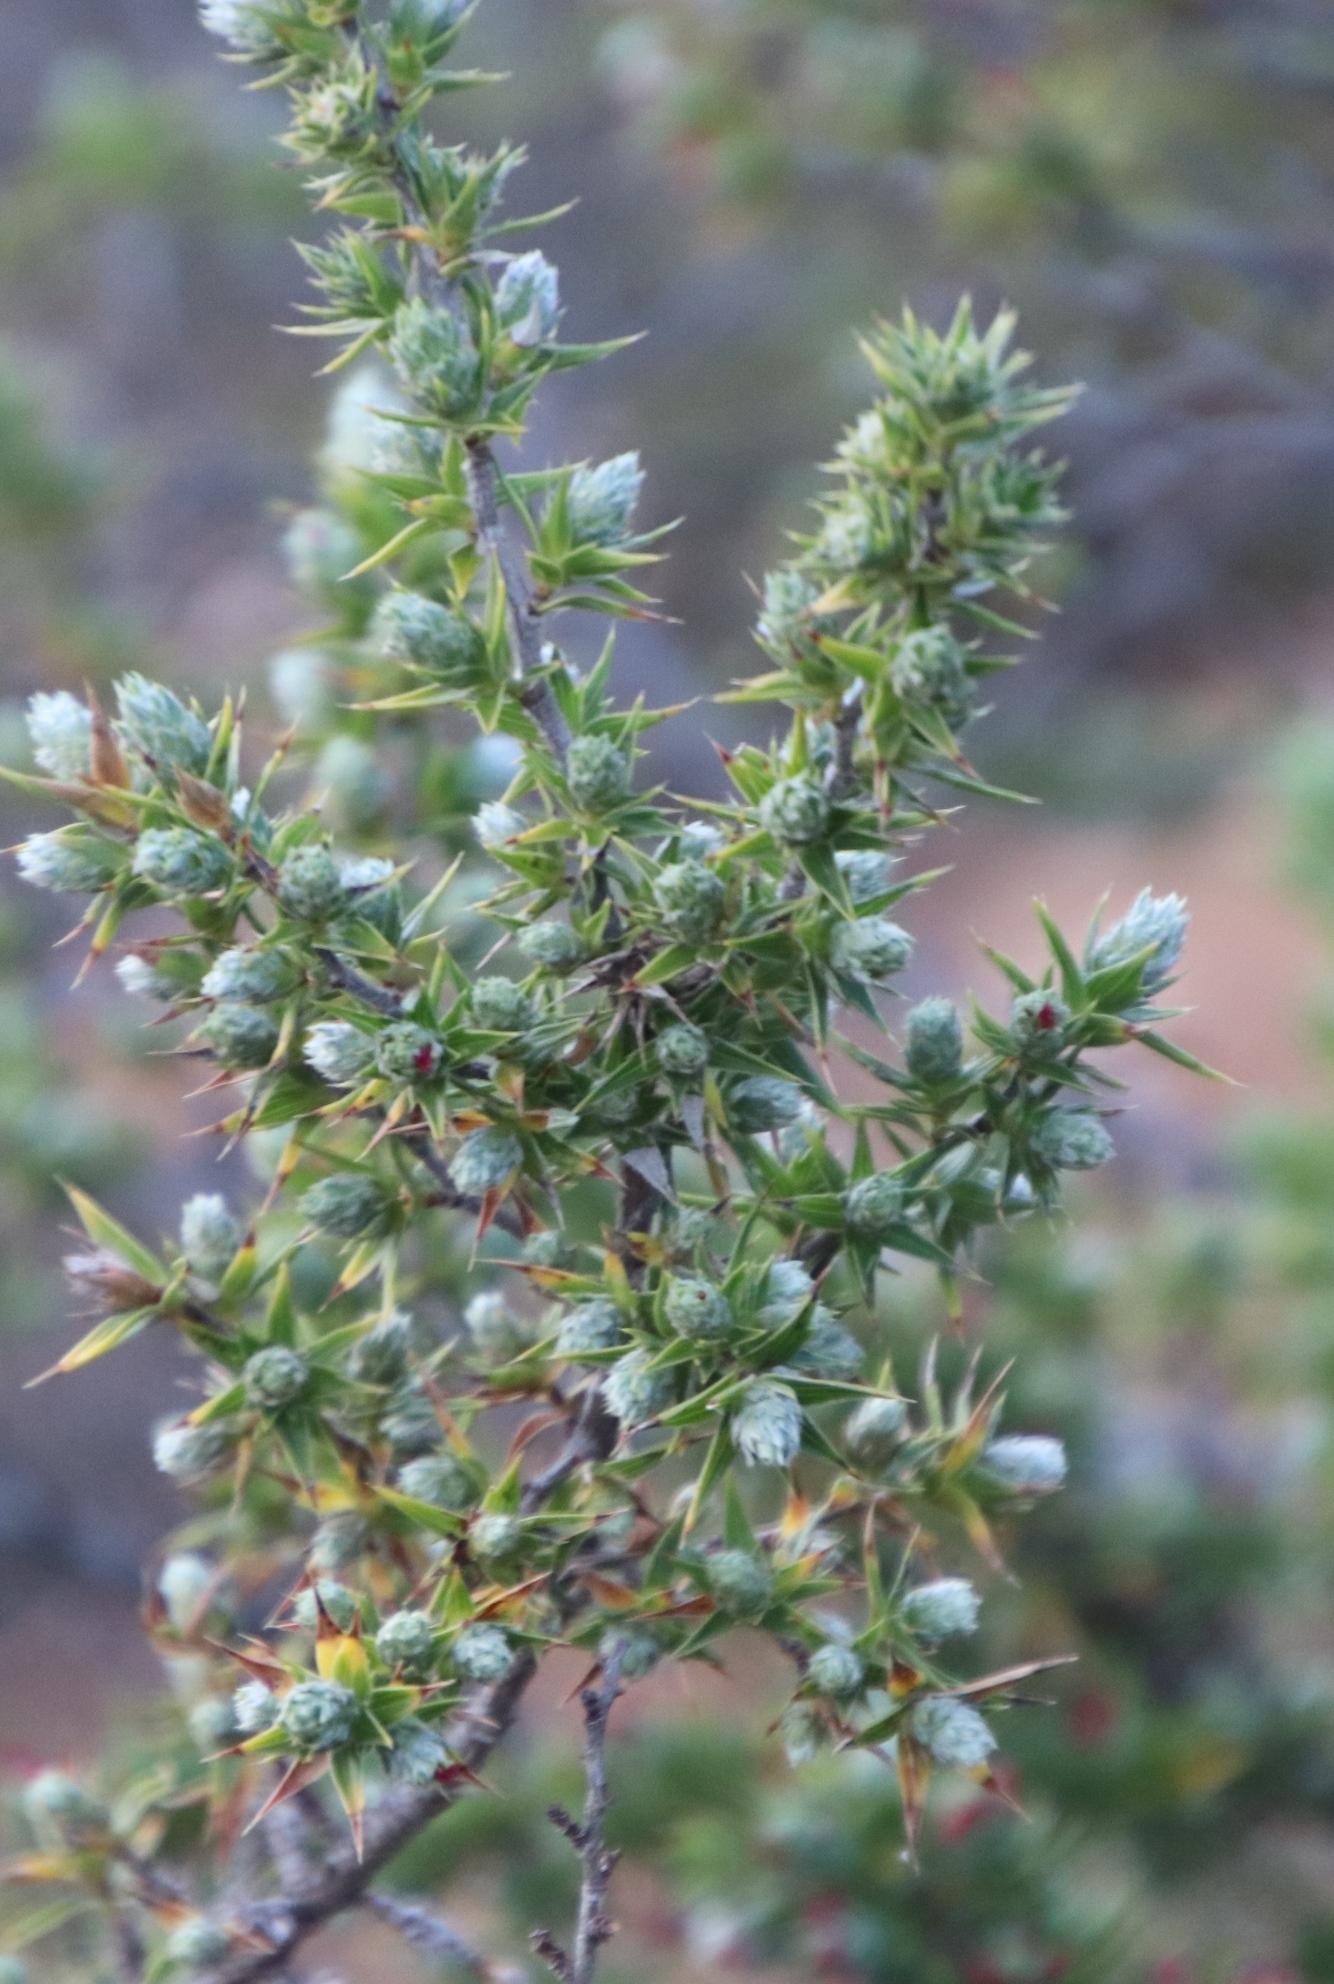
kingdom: Plantae
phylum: Tracheophyta
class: Magnoliopsida
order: Rosales
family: Rosaceae
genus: Cliffortia
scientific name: Cliffortia ruscifolia
